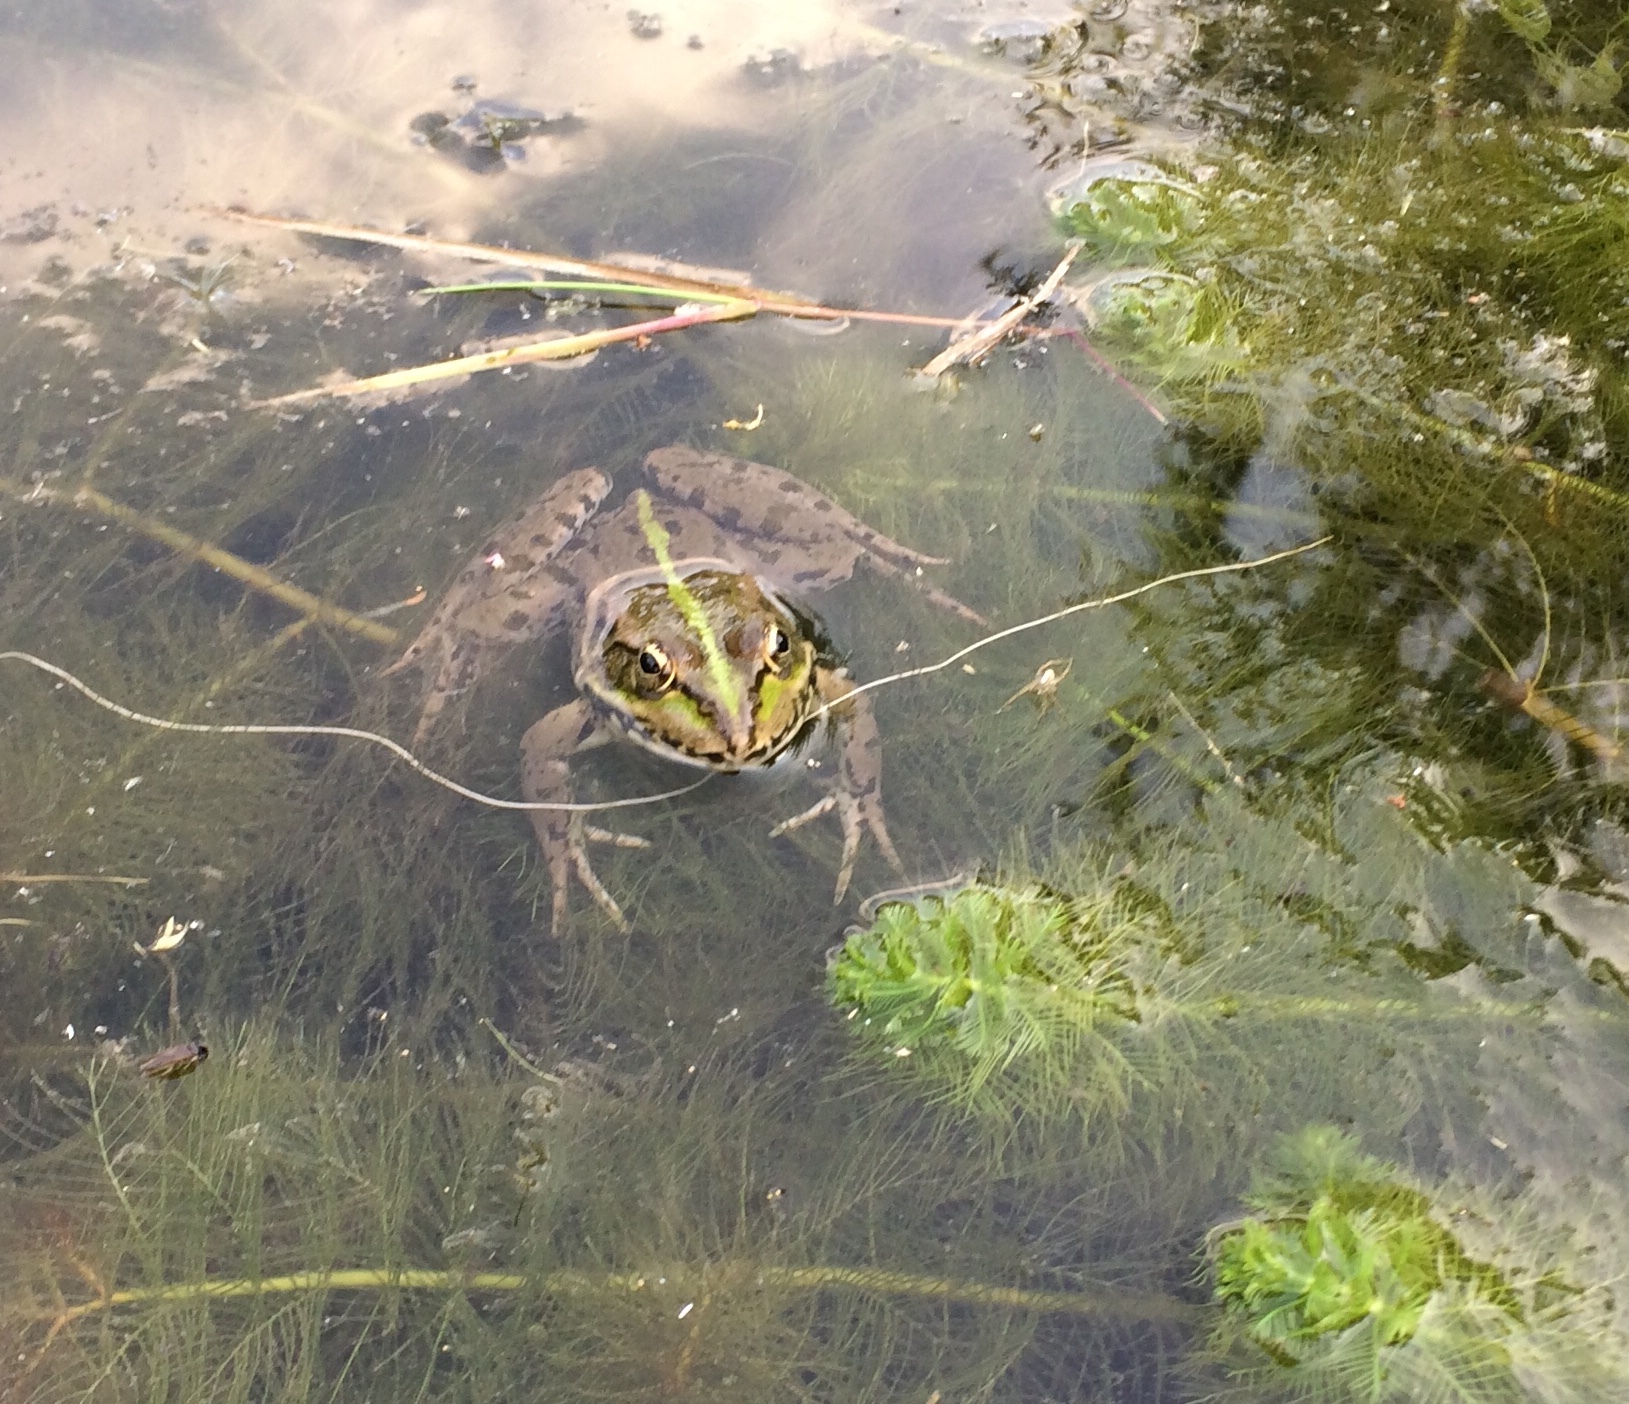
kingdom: Animalia
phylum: Chordata
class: Amphibia
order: Anura
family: Ranidae
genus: Pelophylax
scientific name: Pelophylax ridibundus
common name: Marsh frog
